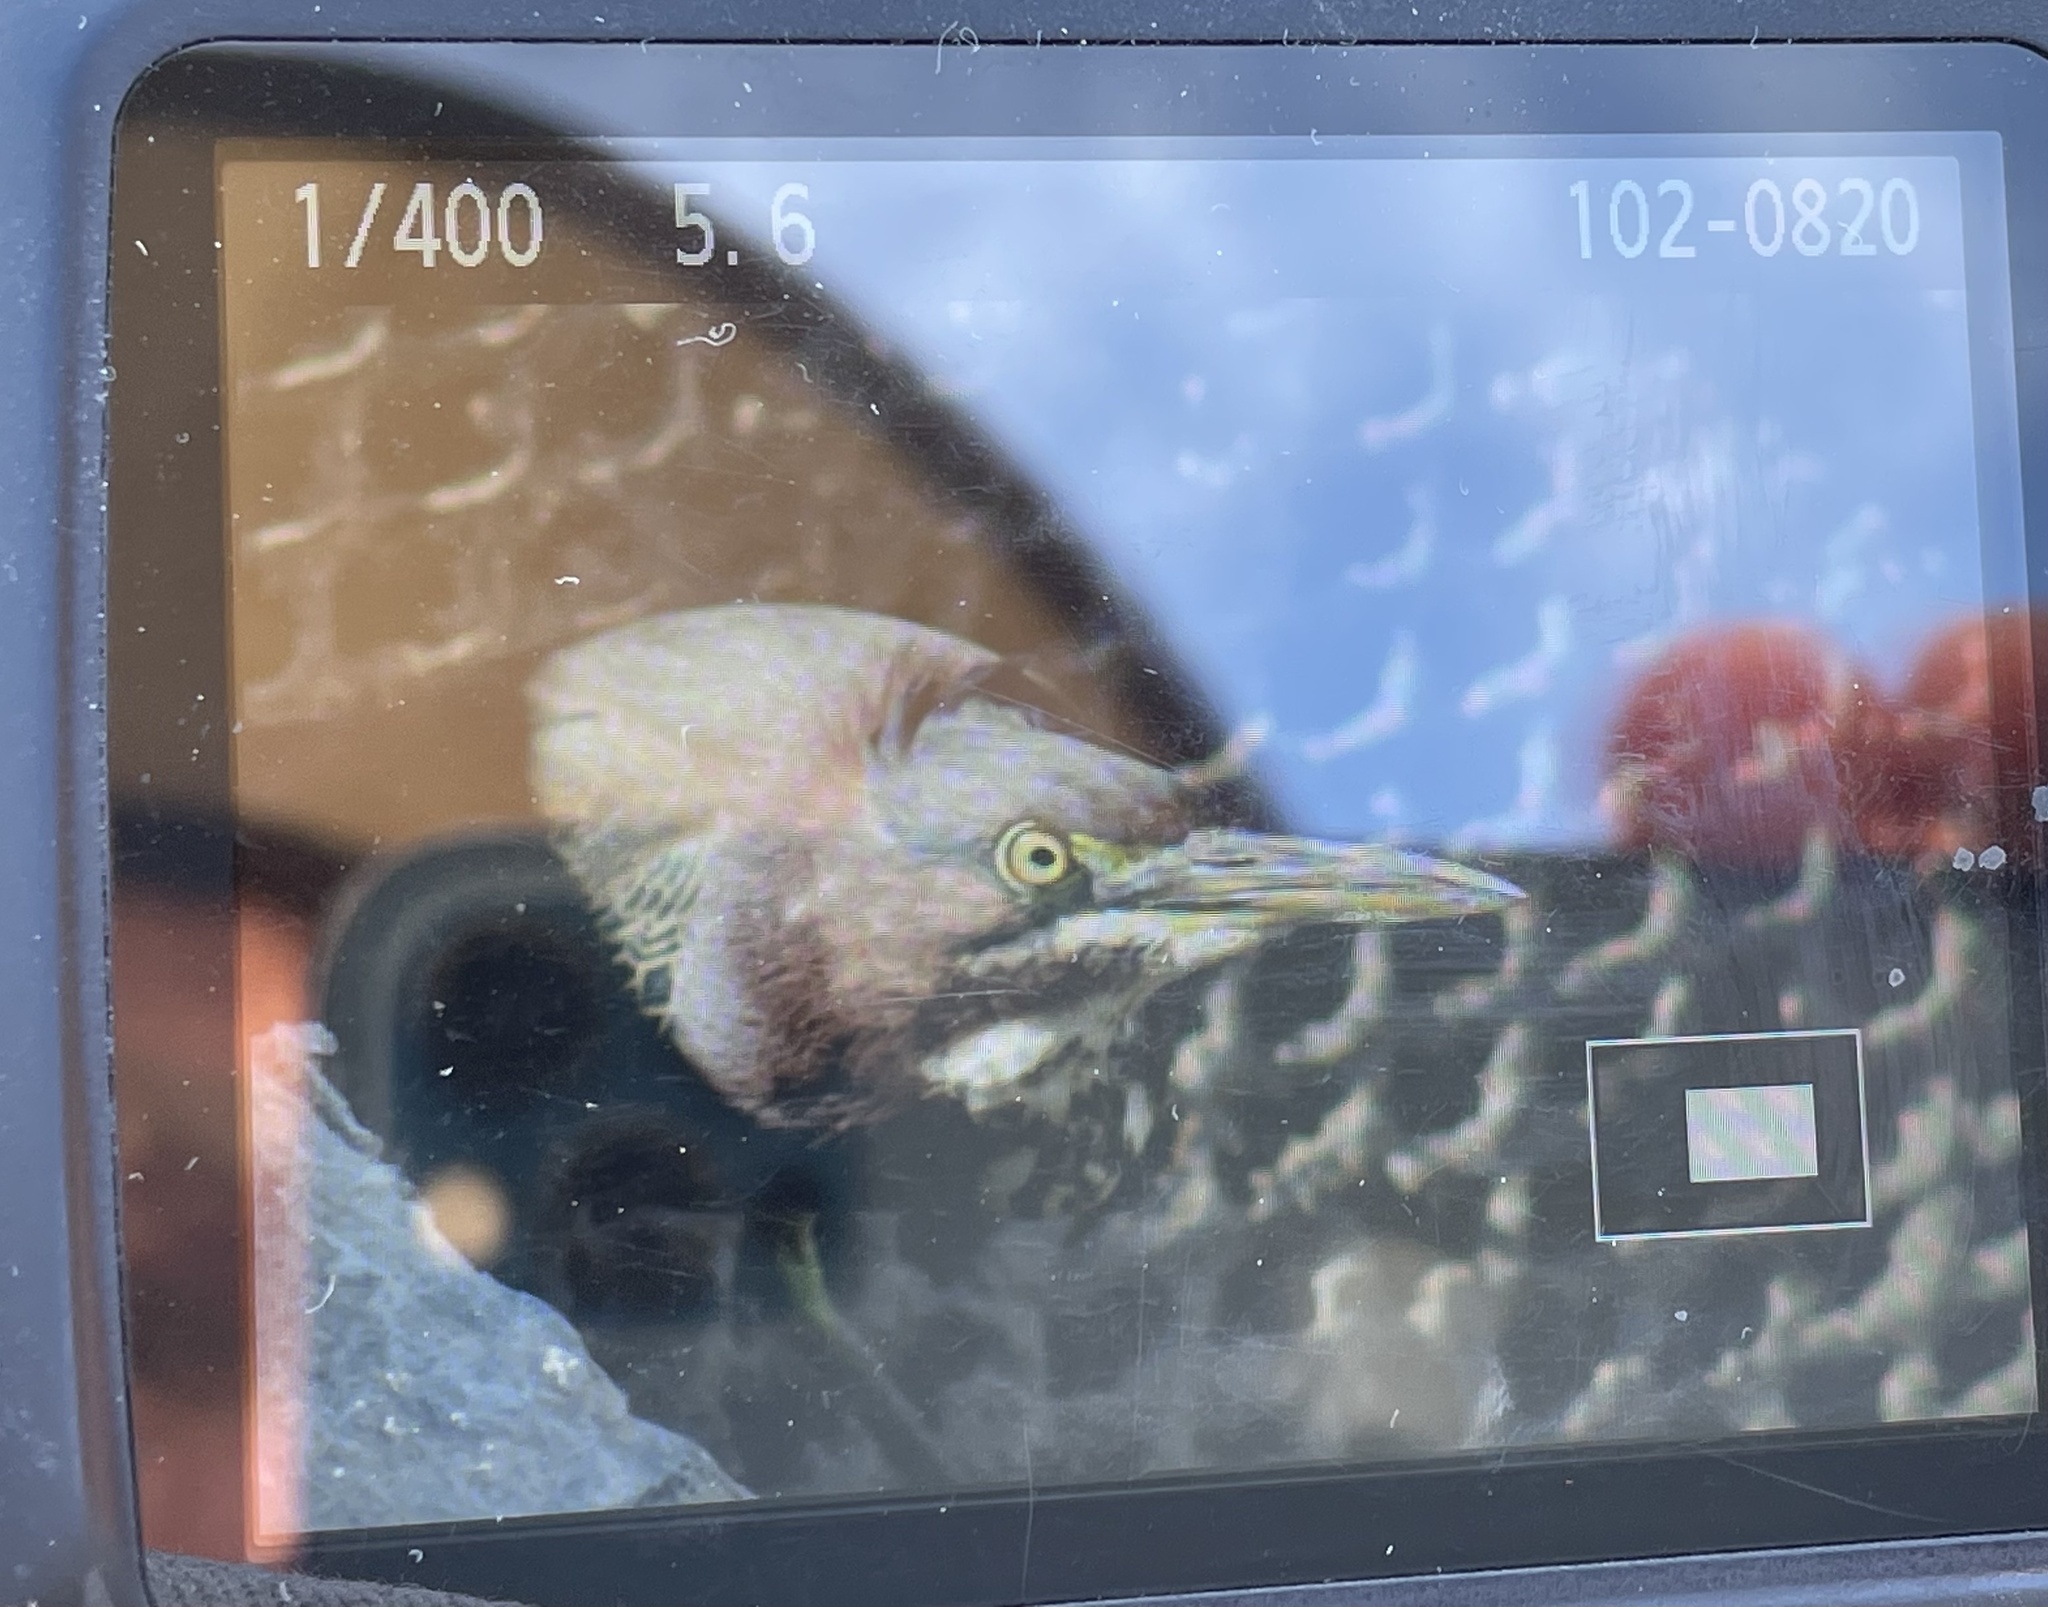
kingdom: Animalia
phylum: Chordata
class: Aves
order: Pelecaniformes
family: Ardeidae
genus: Butorides
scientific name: Butorides virescens
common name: Green heron
